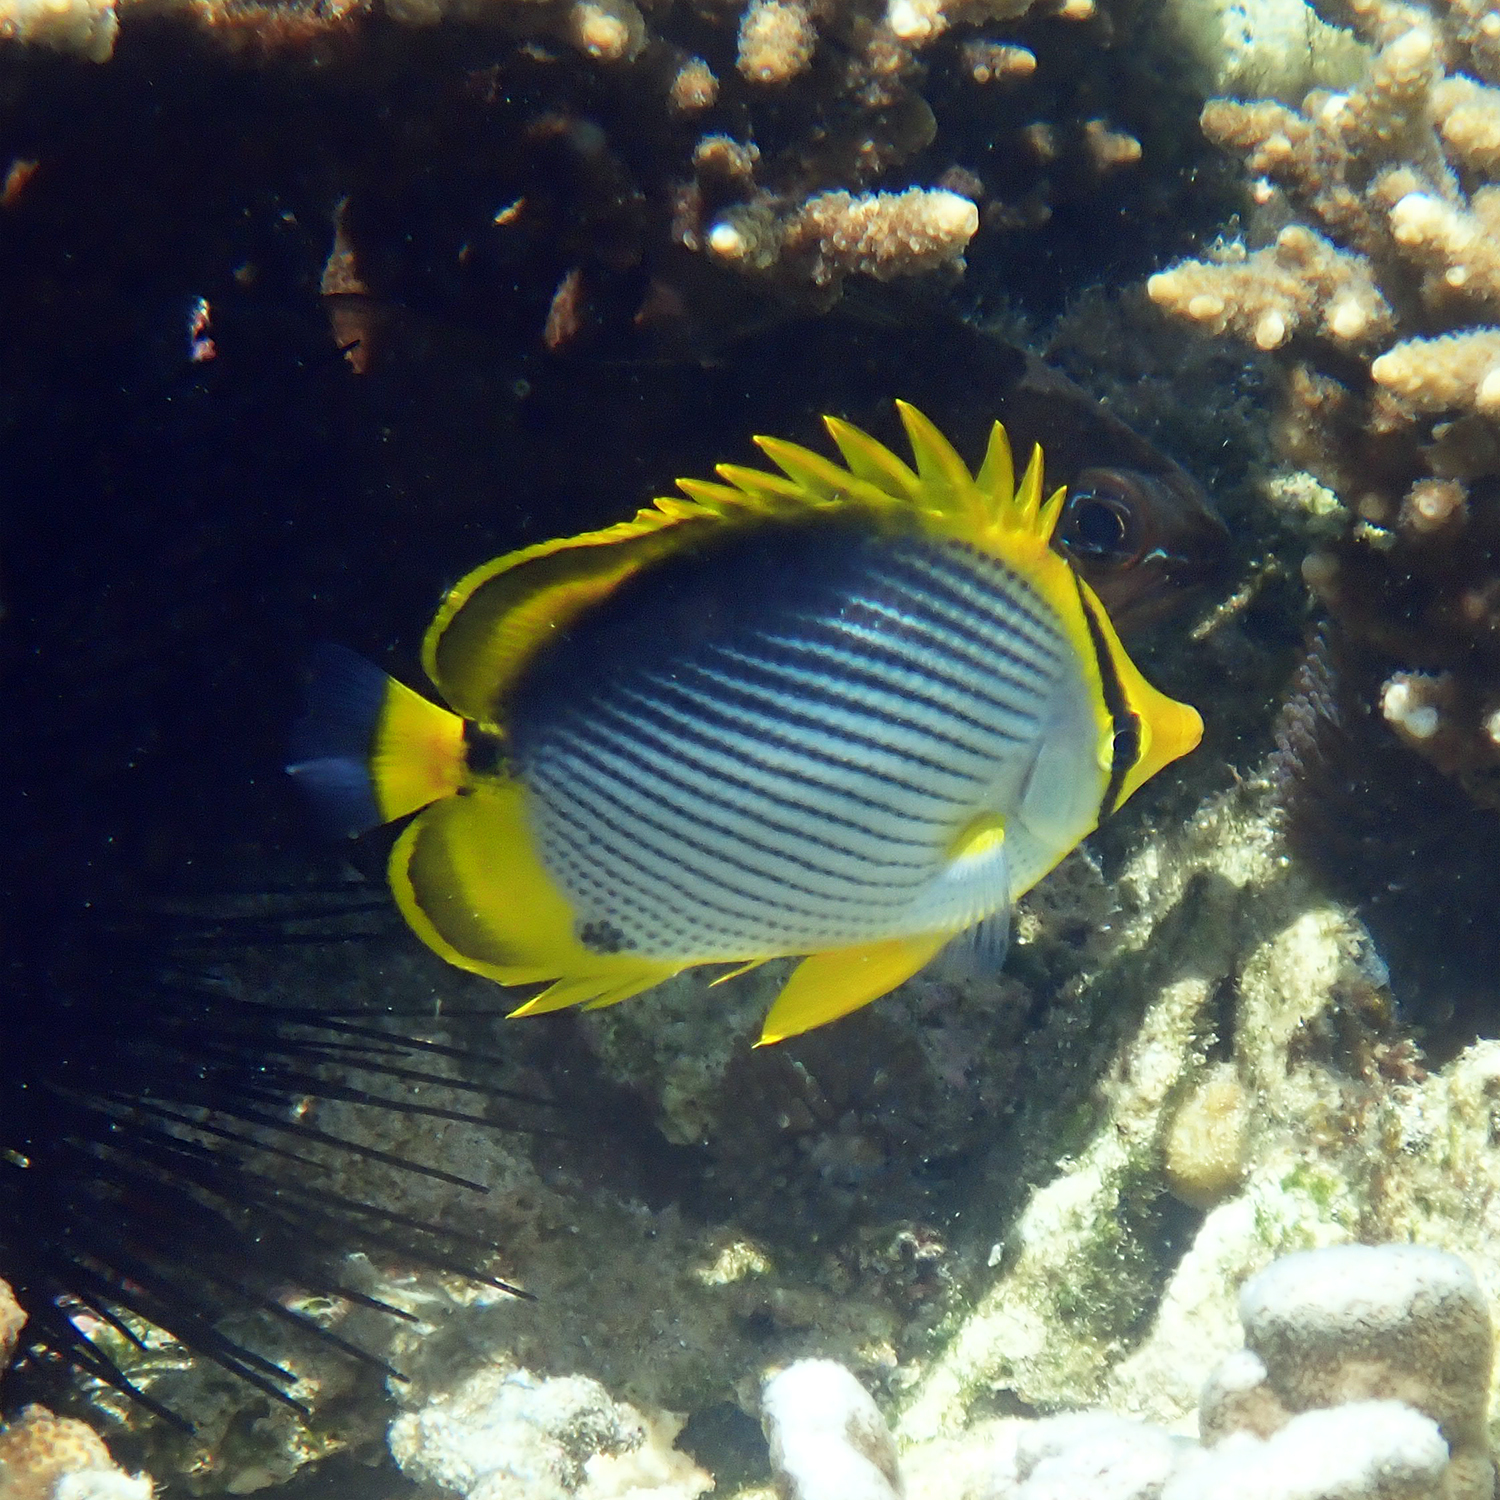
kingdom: Animalia
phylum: Chordata
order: Perciformes
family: Chaetodontidae
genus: Chaetodon
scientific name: Chaetodon melannotus
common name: Blackback butterflyfish
